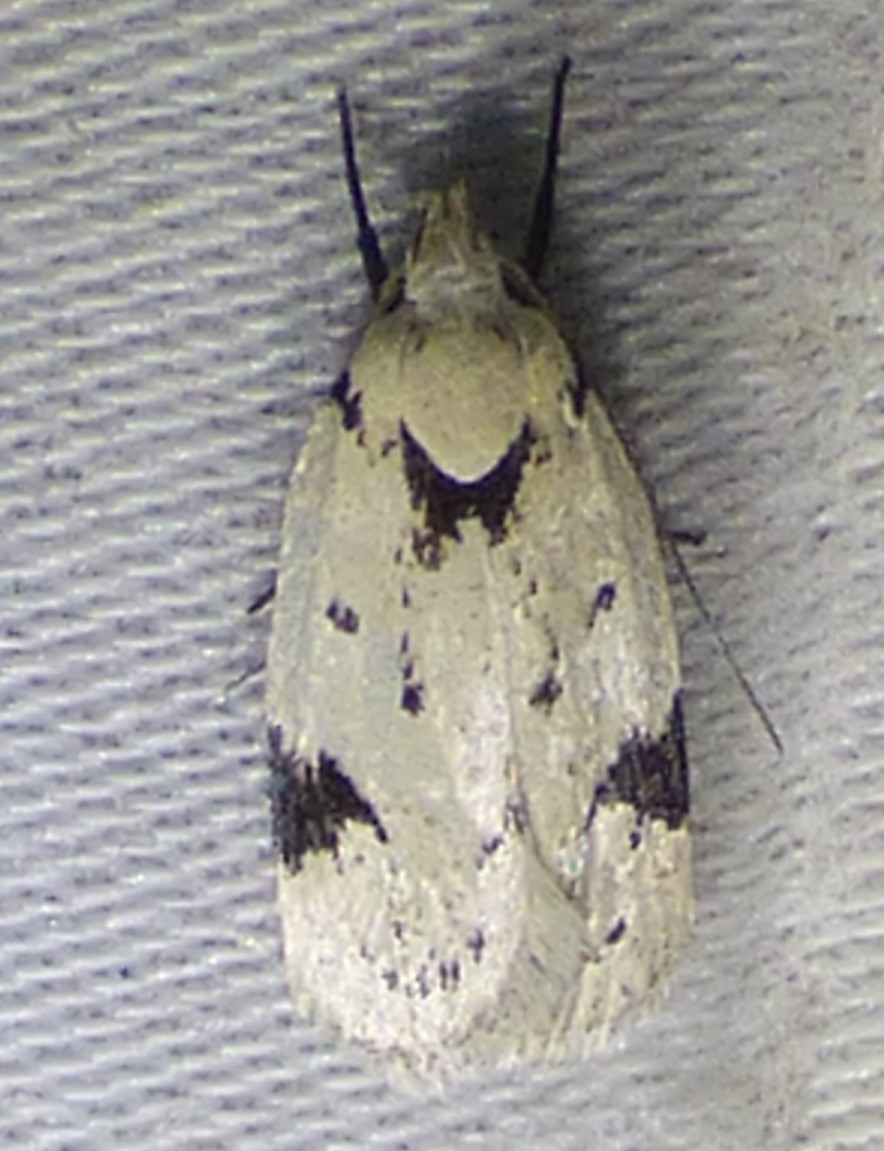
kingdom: Animalia
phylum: Arthropoda
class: Insecta
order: Lepidoptera
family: Oecophoridae
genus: Inga
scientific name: Inga sparsiciliella
